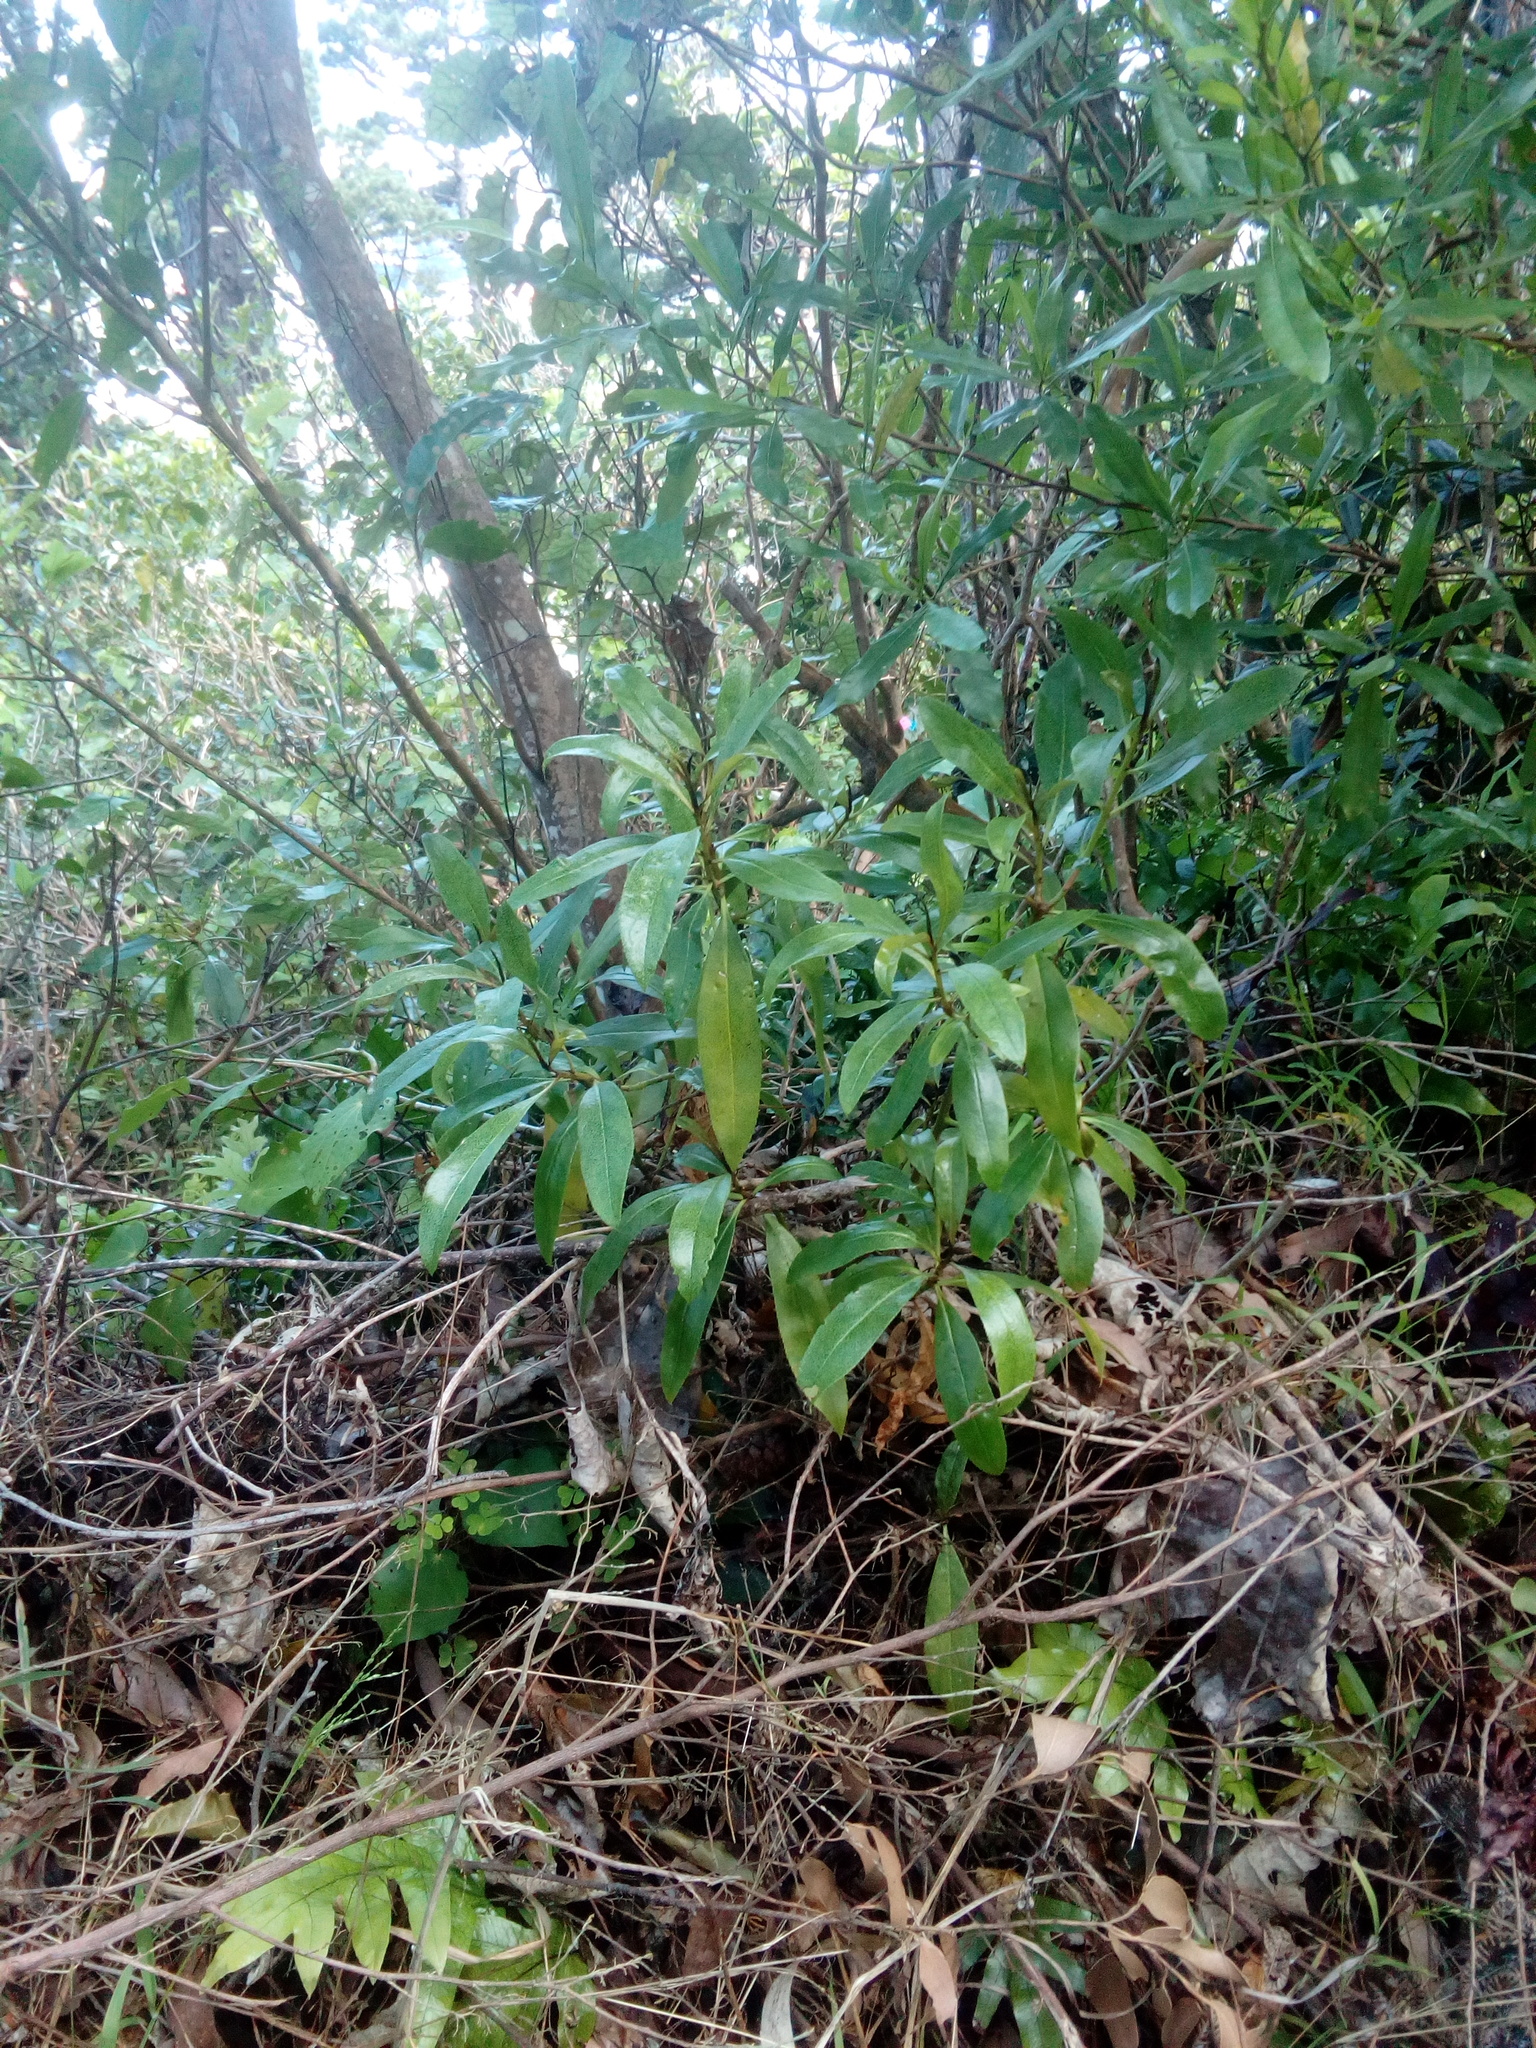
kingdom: Plantae
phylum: Tracheophyta
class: Magnoliopsida
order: Lamiales
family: Scrophulariaceae
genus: Myoporum
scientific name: Myoporum laetum
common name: Ngaio tree
